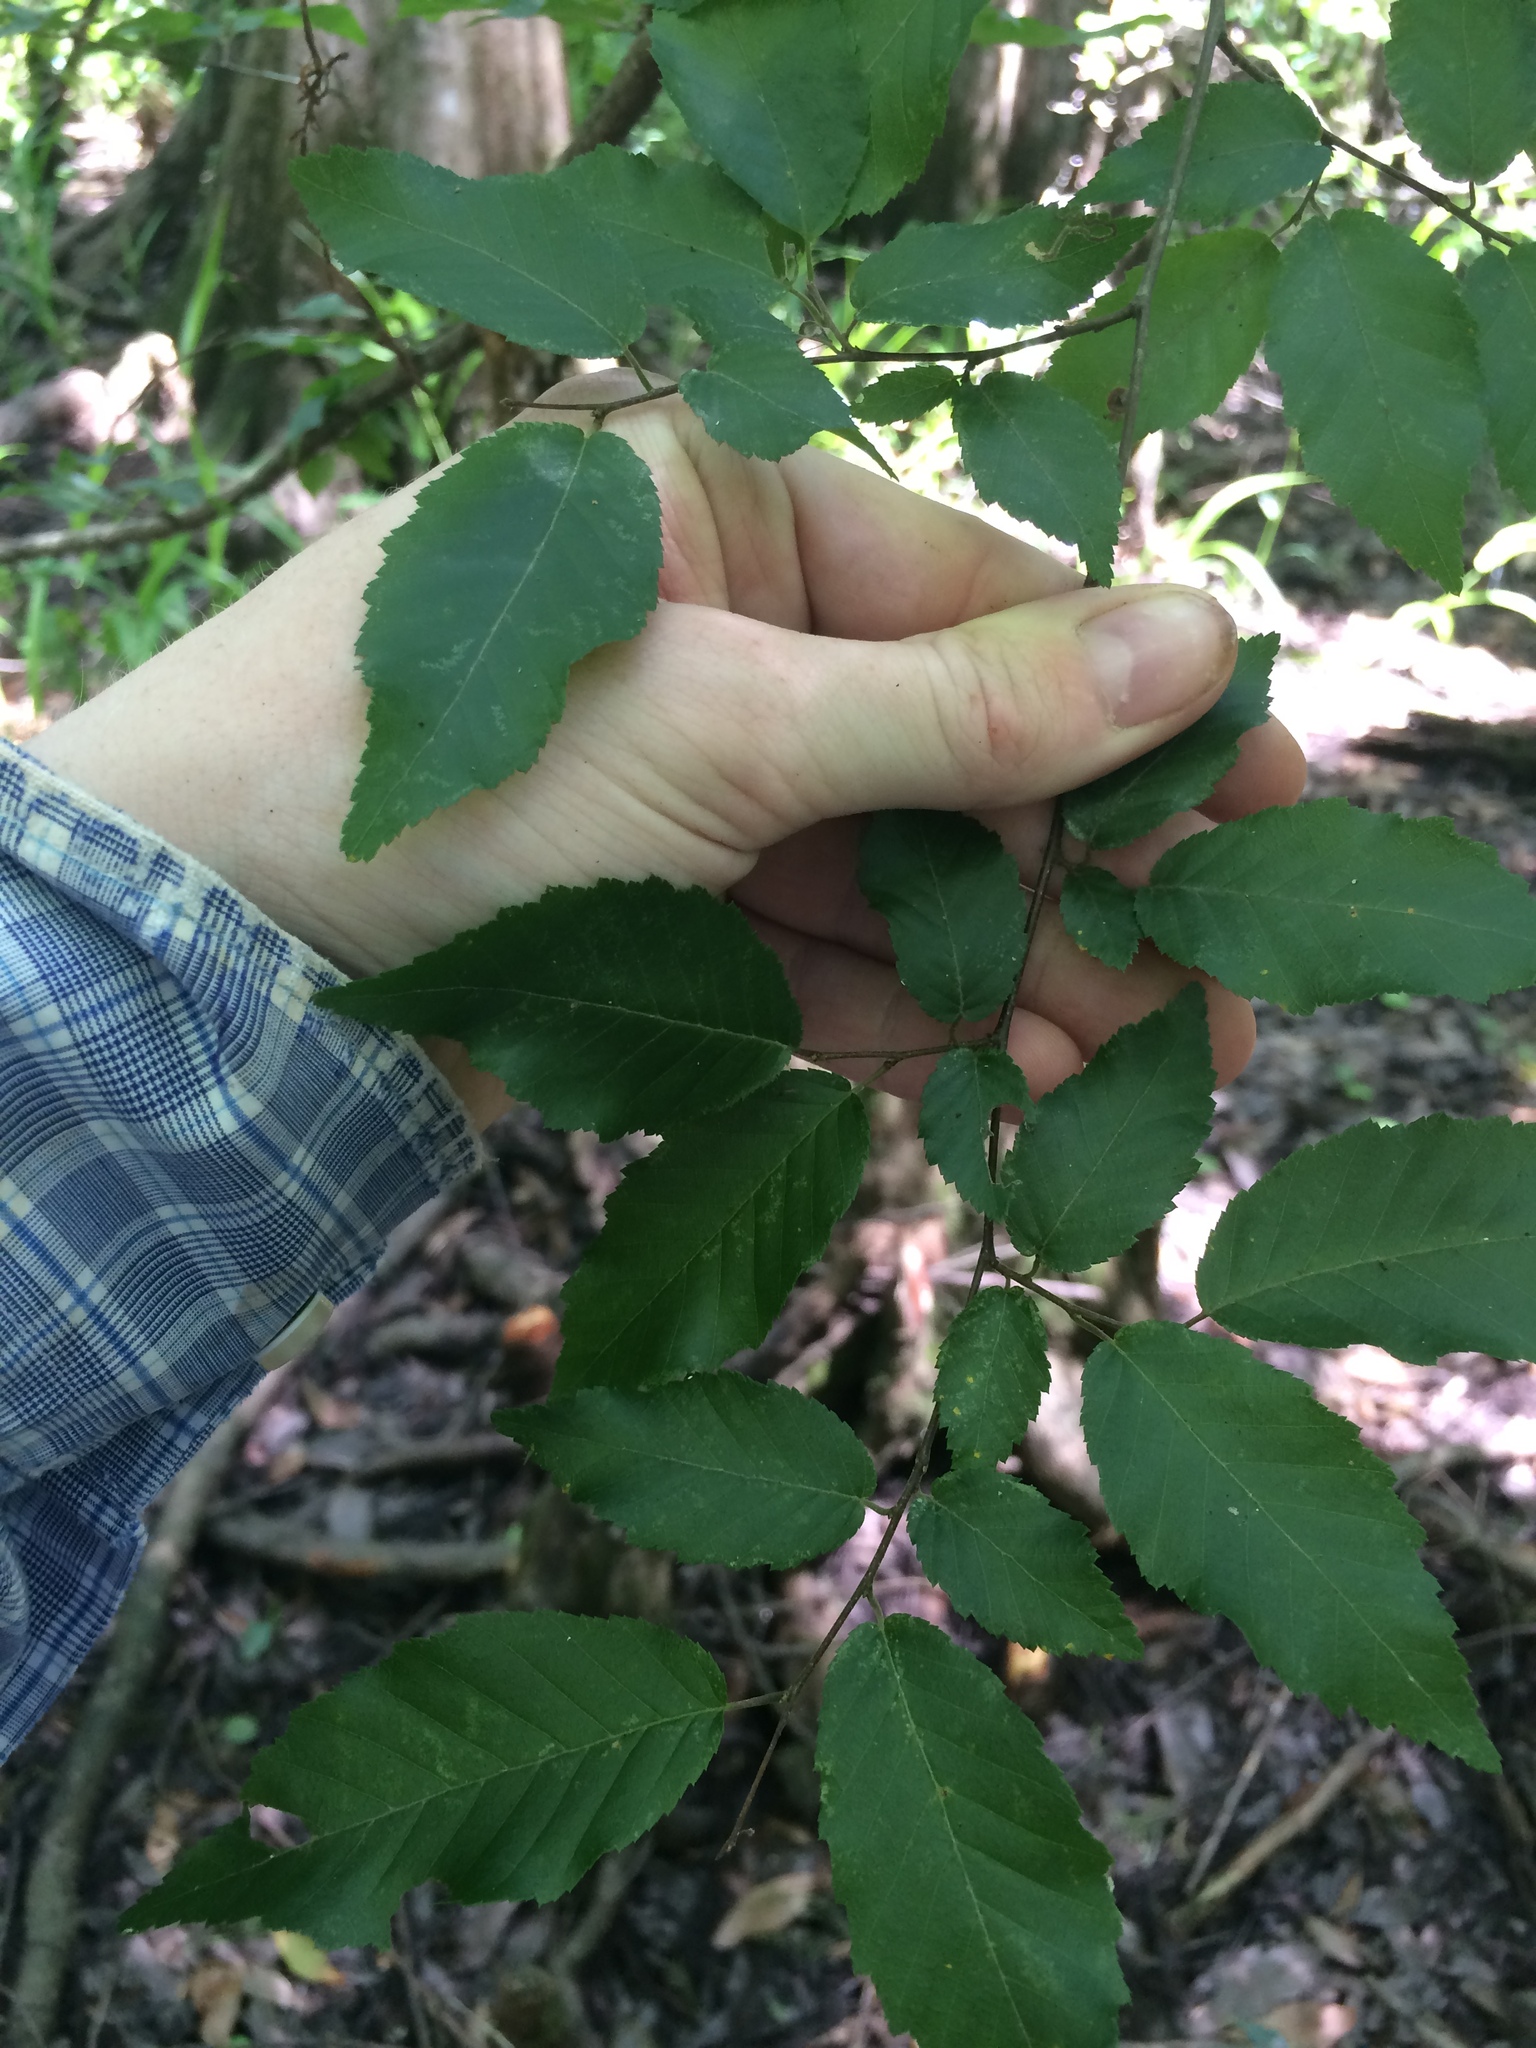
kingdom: Plantae
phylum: Tracheophyta
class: Magnoliopsida
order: Fagales
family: Betulaceae
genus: Carpinus
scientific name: Carpinus caroliniana
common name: American hornbeam
